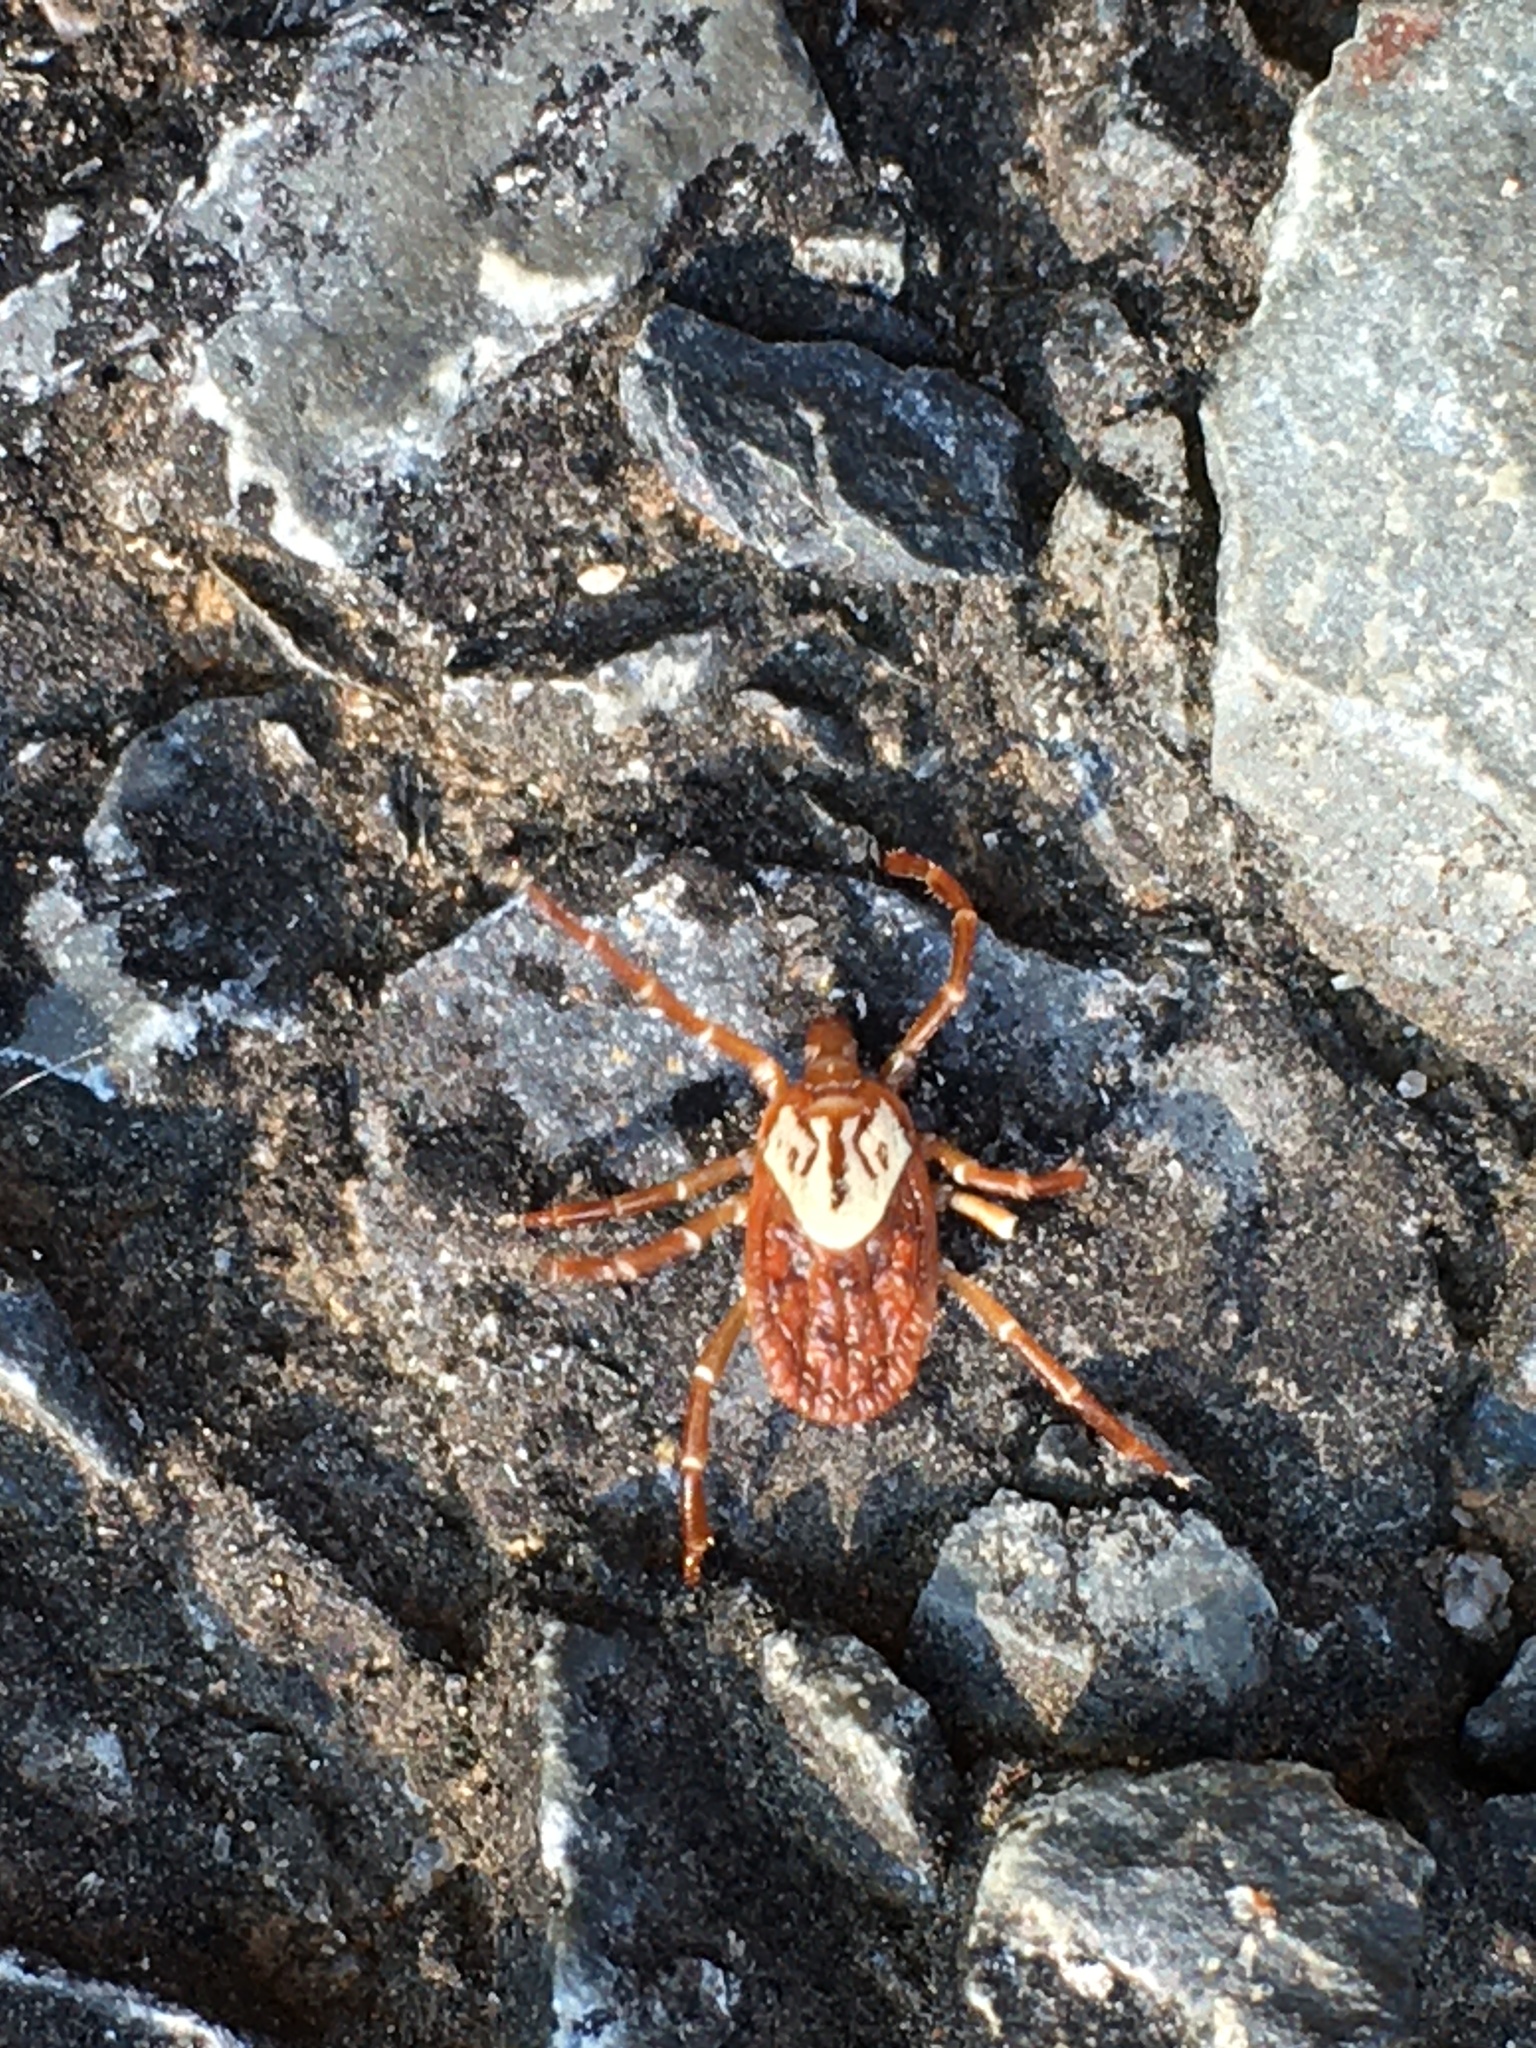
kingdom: Animalia
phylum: Arthropoda
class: Arachnida
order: Ixodida
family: Ixodidae
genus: Amblyomma
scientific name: Amblyomma maculatum
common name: Gulf coast tick
